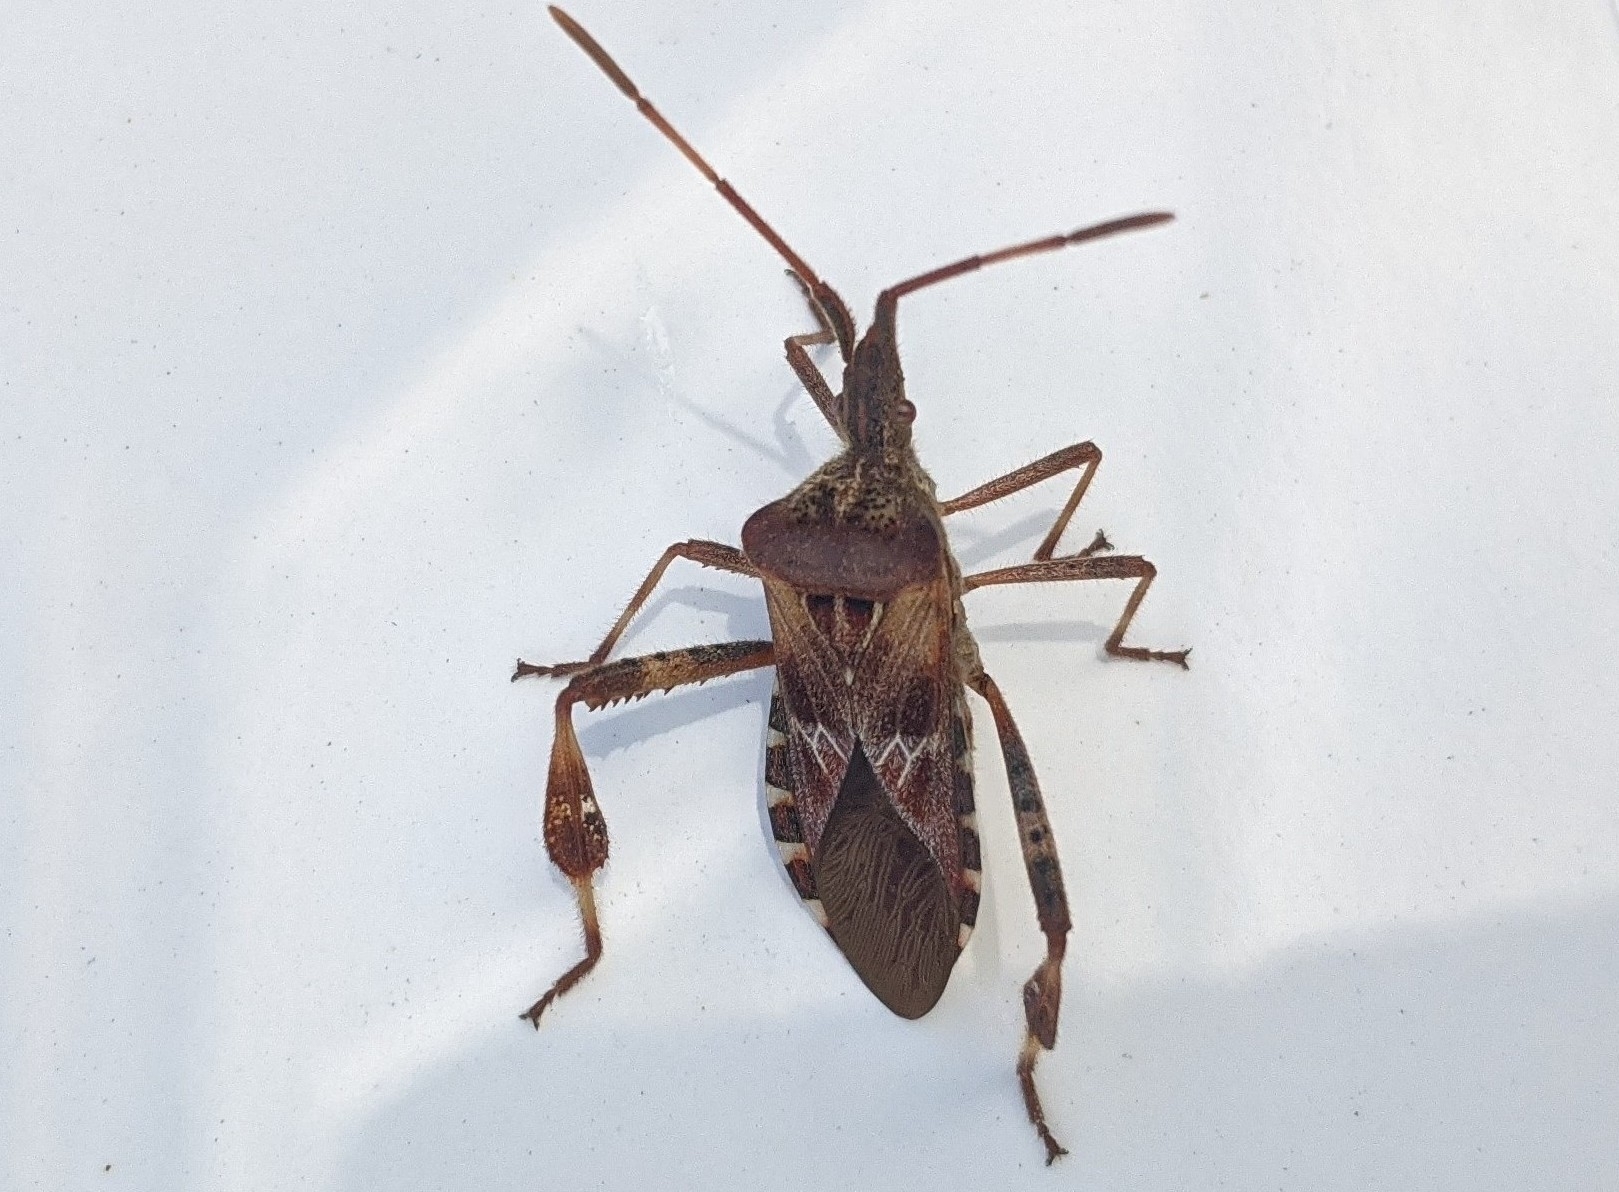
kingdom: Animalia
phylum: Arthropoda
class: Insecta
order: Hemiptera
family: Coreidae
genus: Leptoglossus
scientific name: Leptoglossus occidentalis
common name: Western conifer-seed bug
